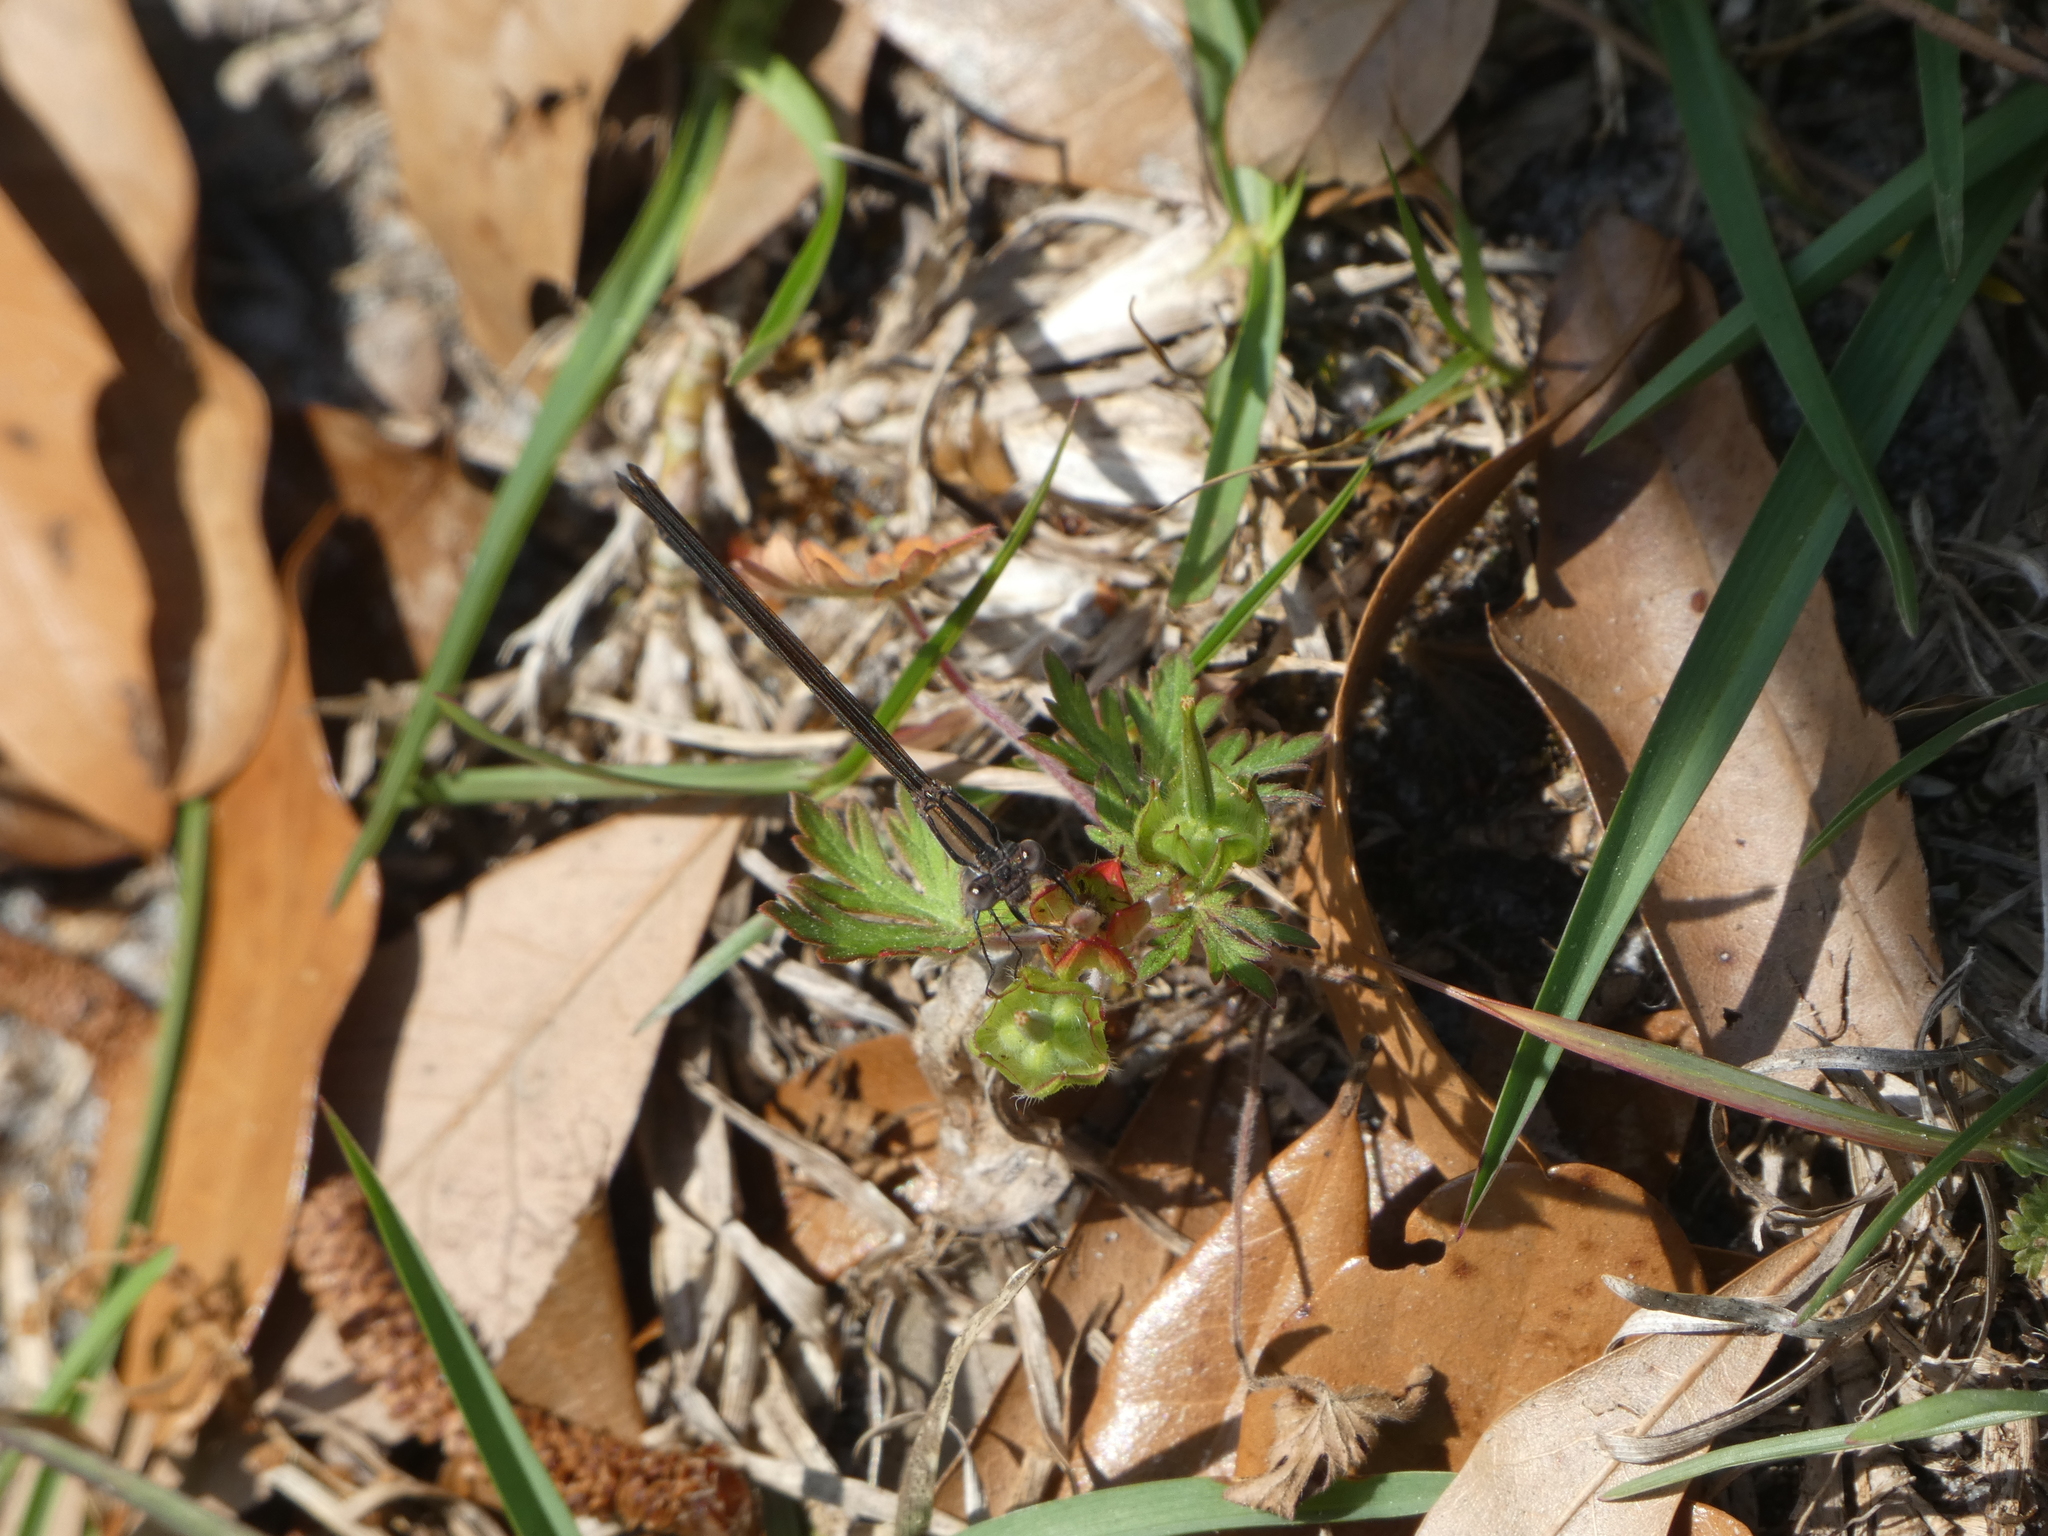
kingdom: Animalia
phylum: Arthropoda
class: Insecta
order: Odonata
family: Coenagrionidae
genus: Argia
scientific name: Argia fumipennis
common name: Variable dancer
